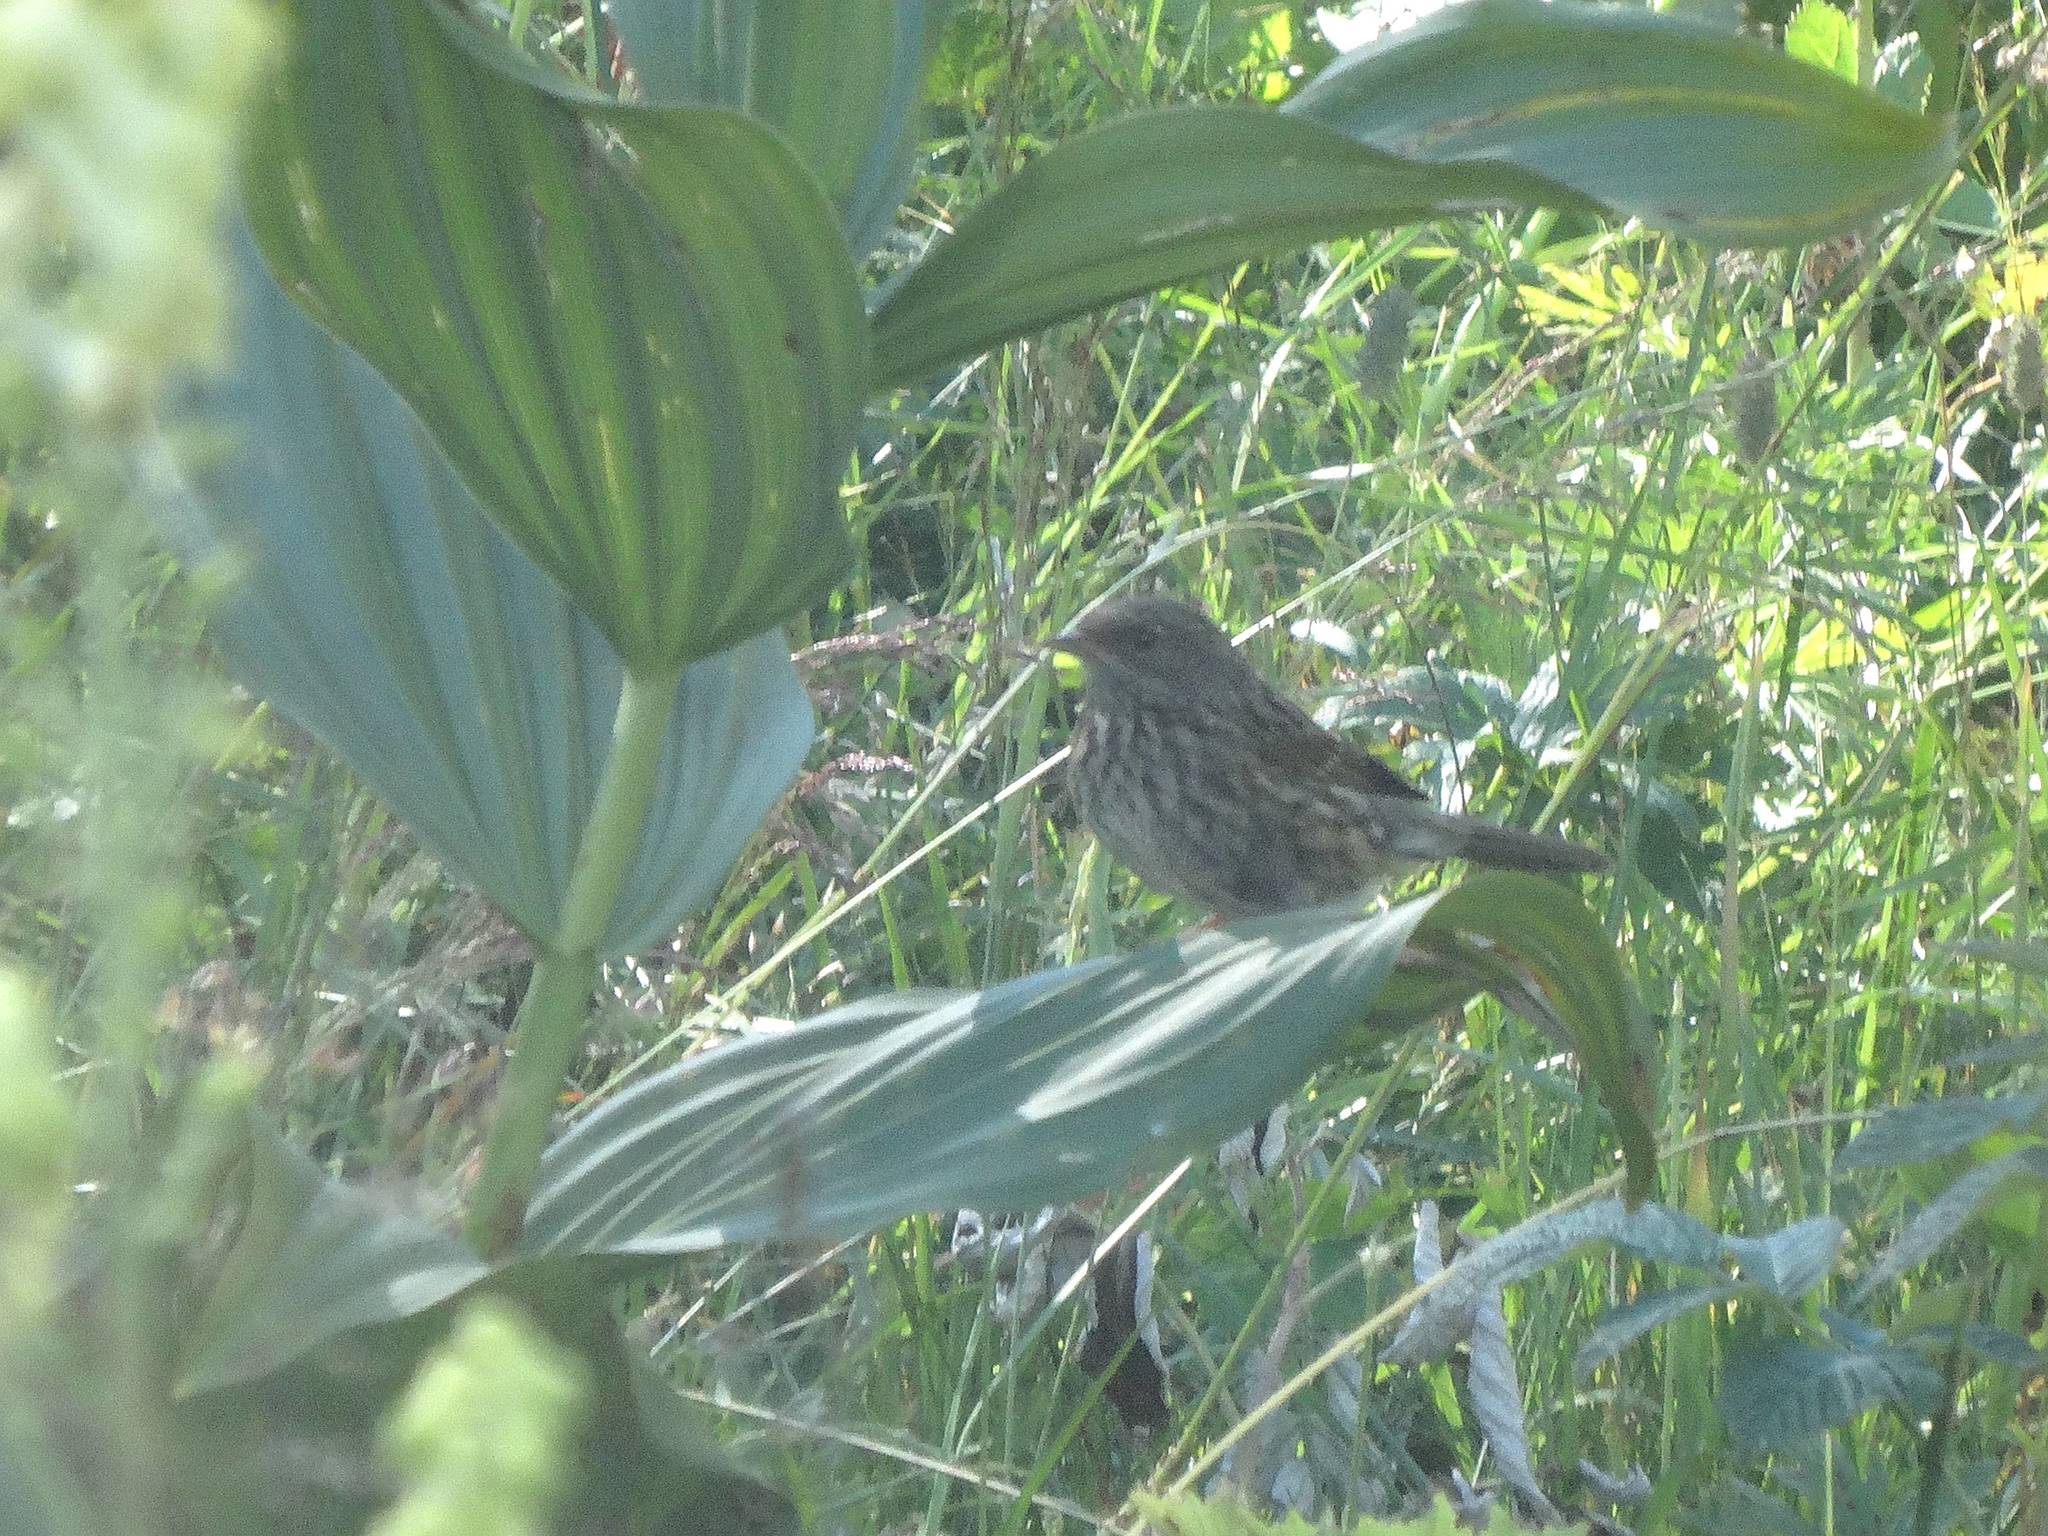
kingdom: Animalia
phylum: Chordata
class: Aves
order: Passeriformes
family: Prunellidae
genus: Prunella
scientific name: Prunella modularis
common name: Dunnock
